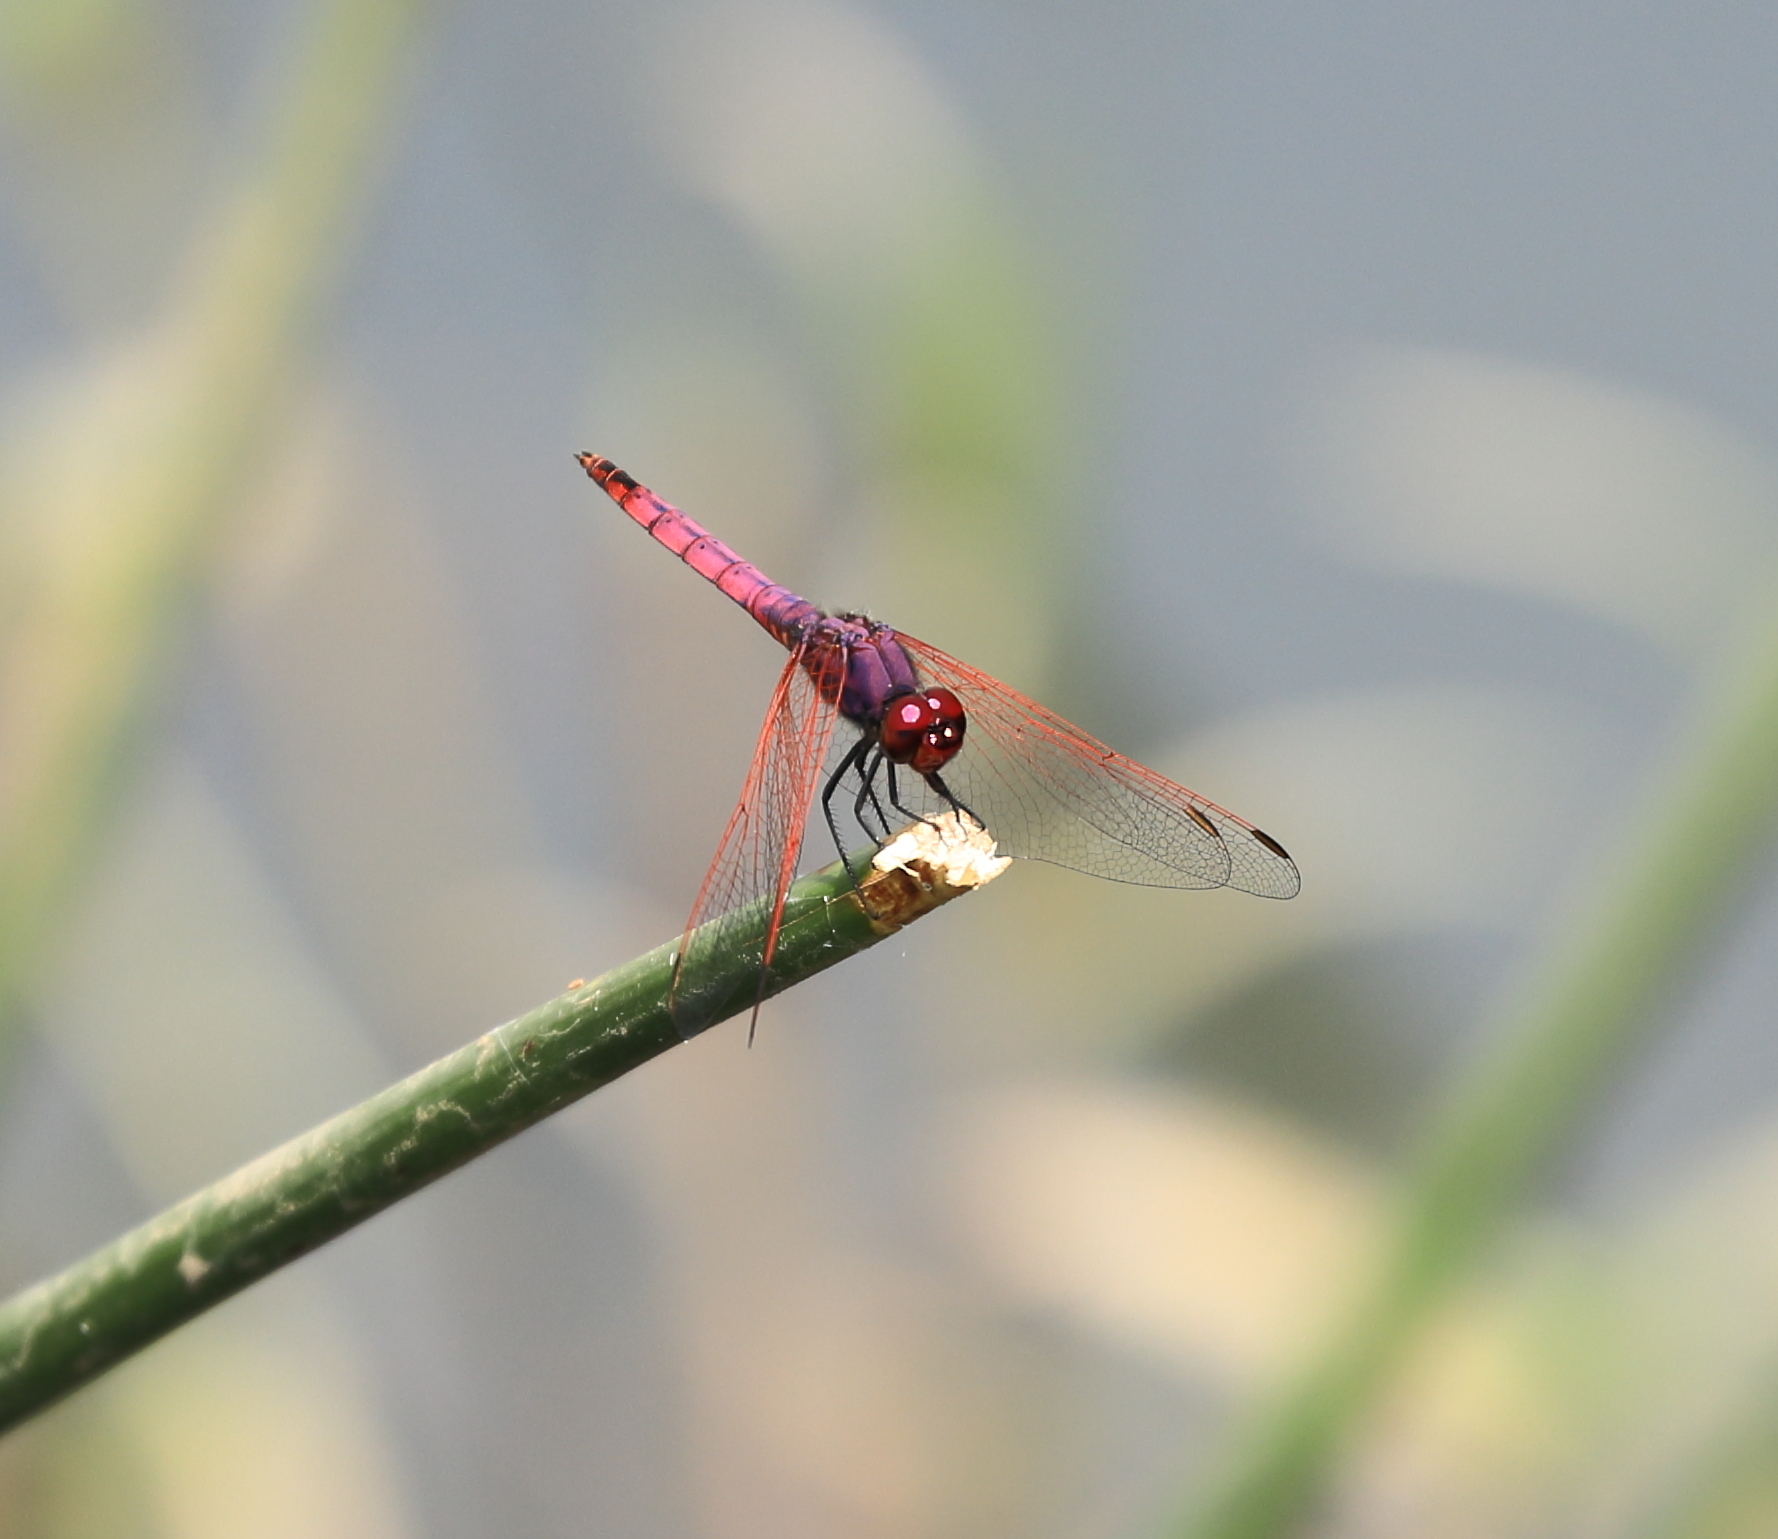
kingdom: Animalia
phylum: Arthropoda
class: Insecta
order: Odonata
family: Libellulidae
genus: Trithemis
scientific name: Trithemis annulata
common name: Violet dropwing
